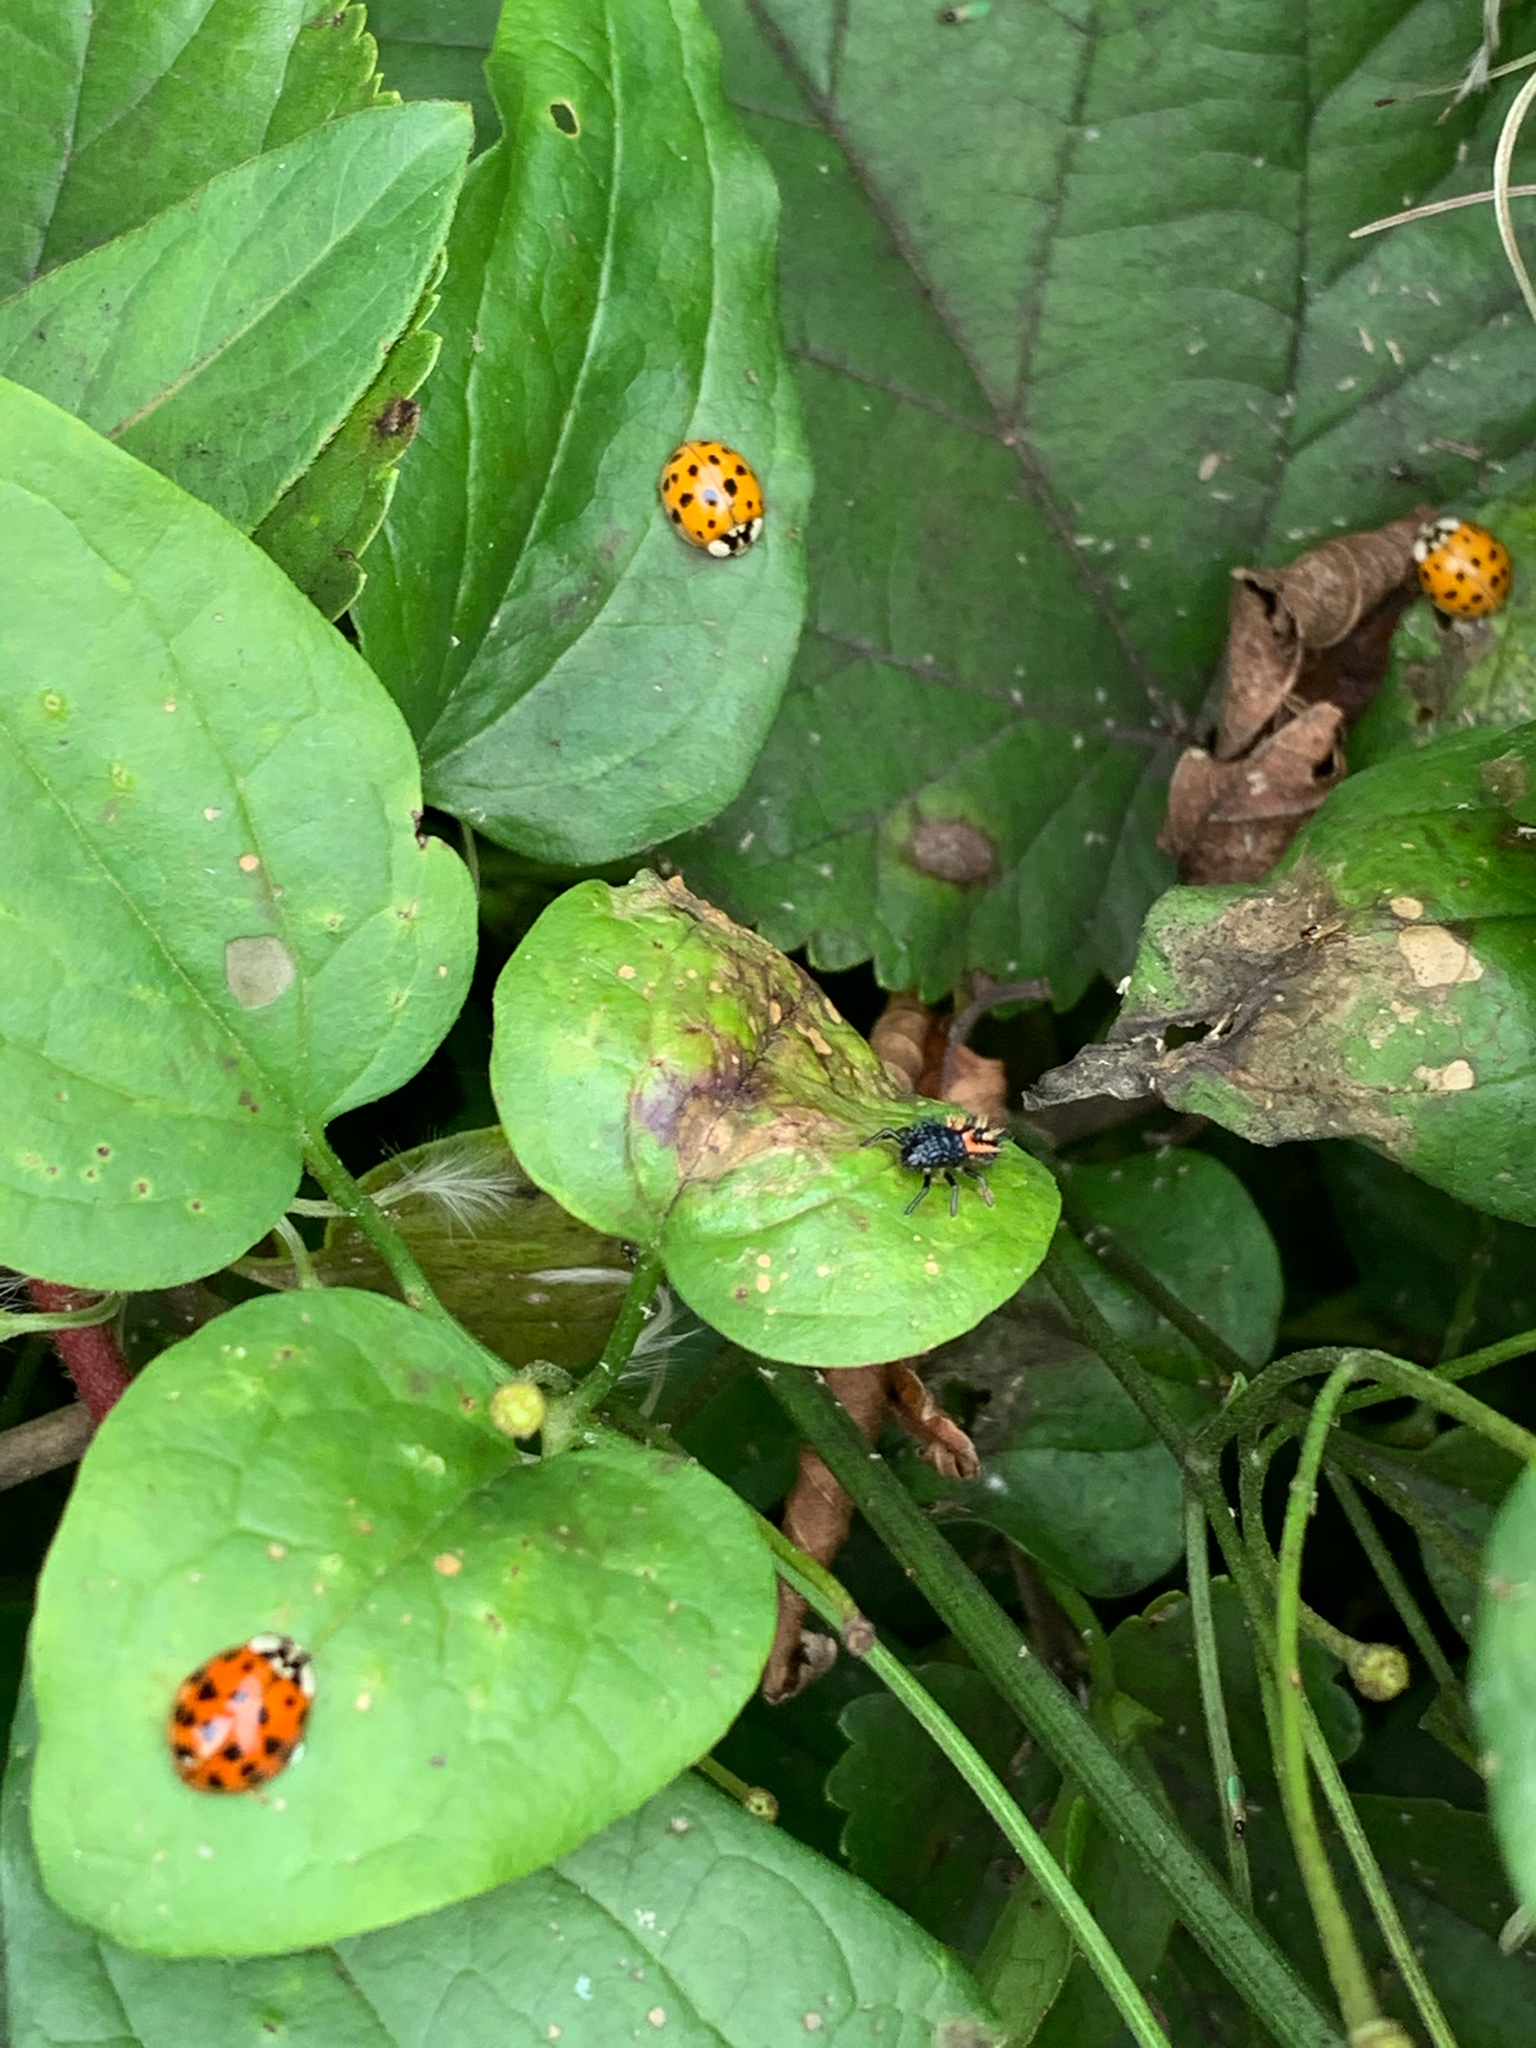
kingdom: Animalia
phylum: Arthropoda
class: Insecta
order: Coleoptera
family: Coccinellidae
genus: Harmonia
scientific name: Harmonia axyridis
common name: Harlequin ladybird
